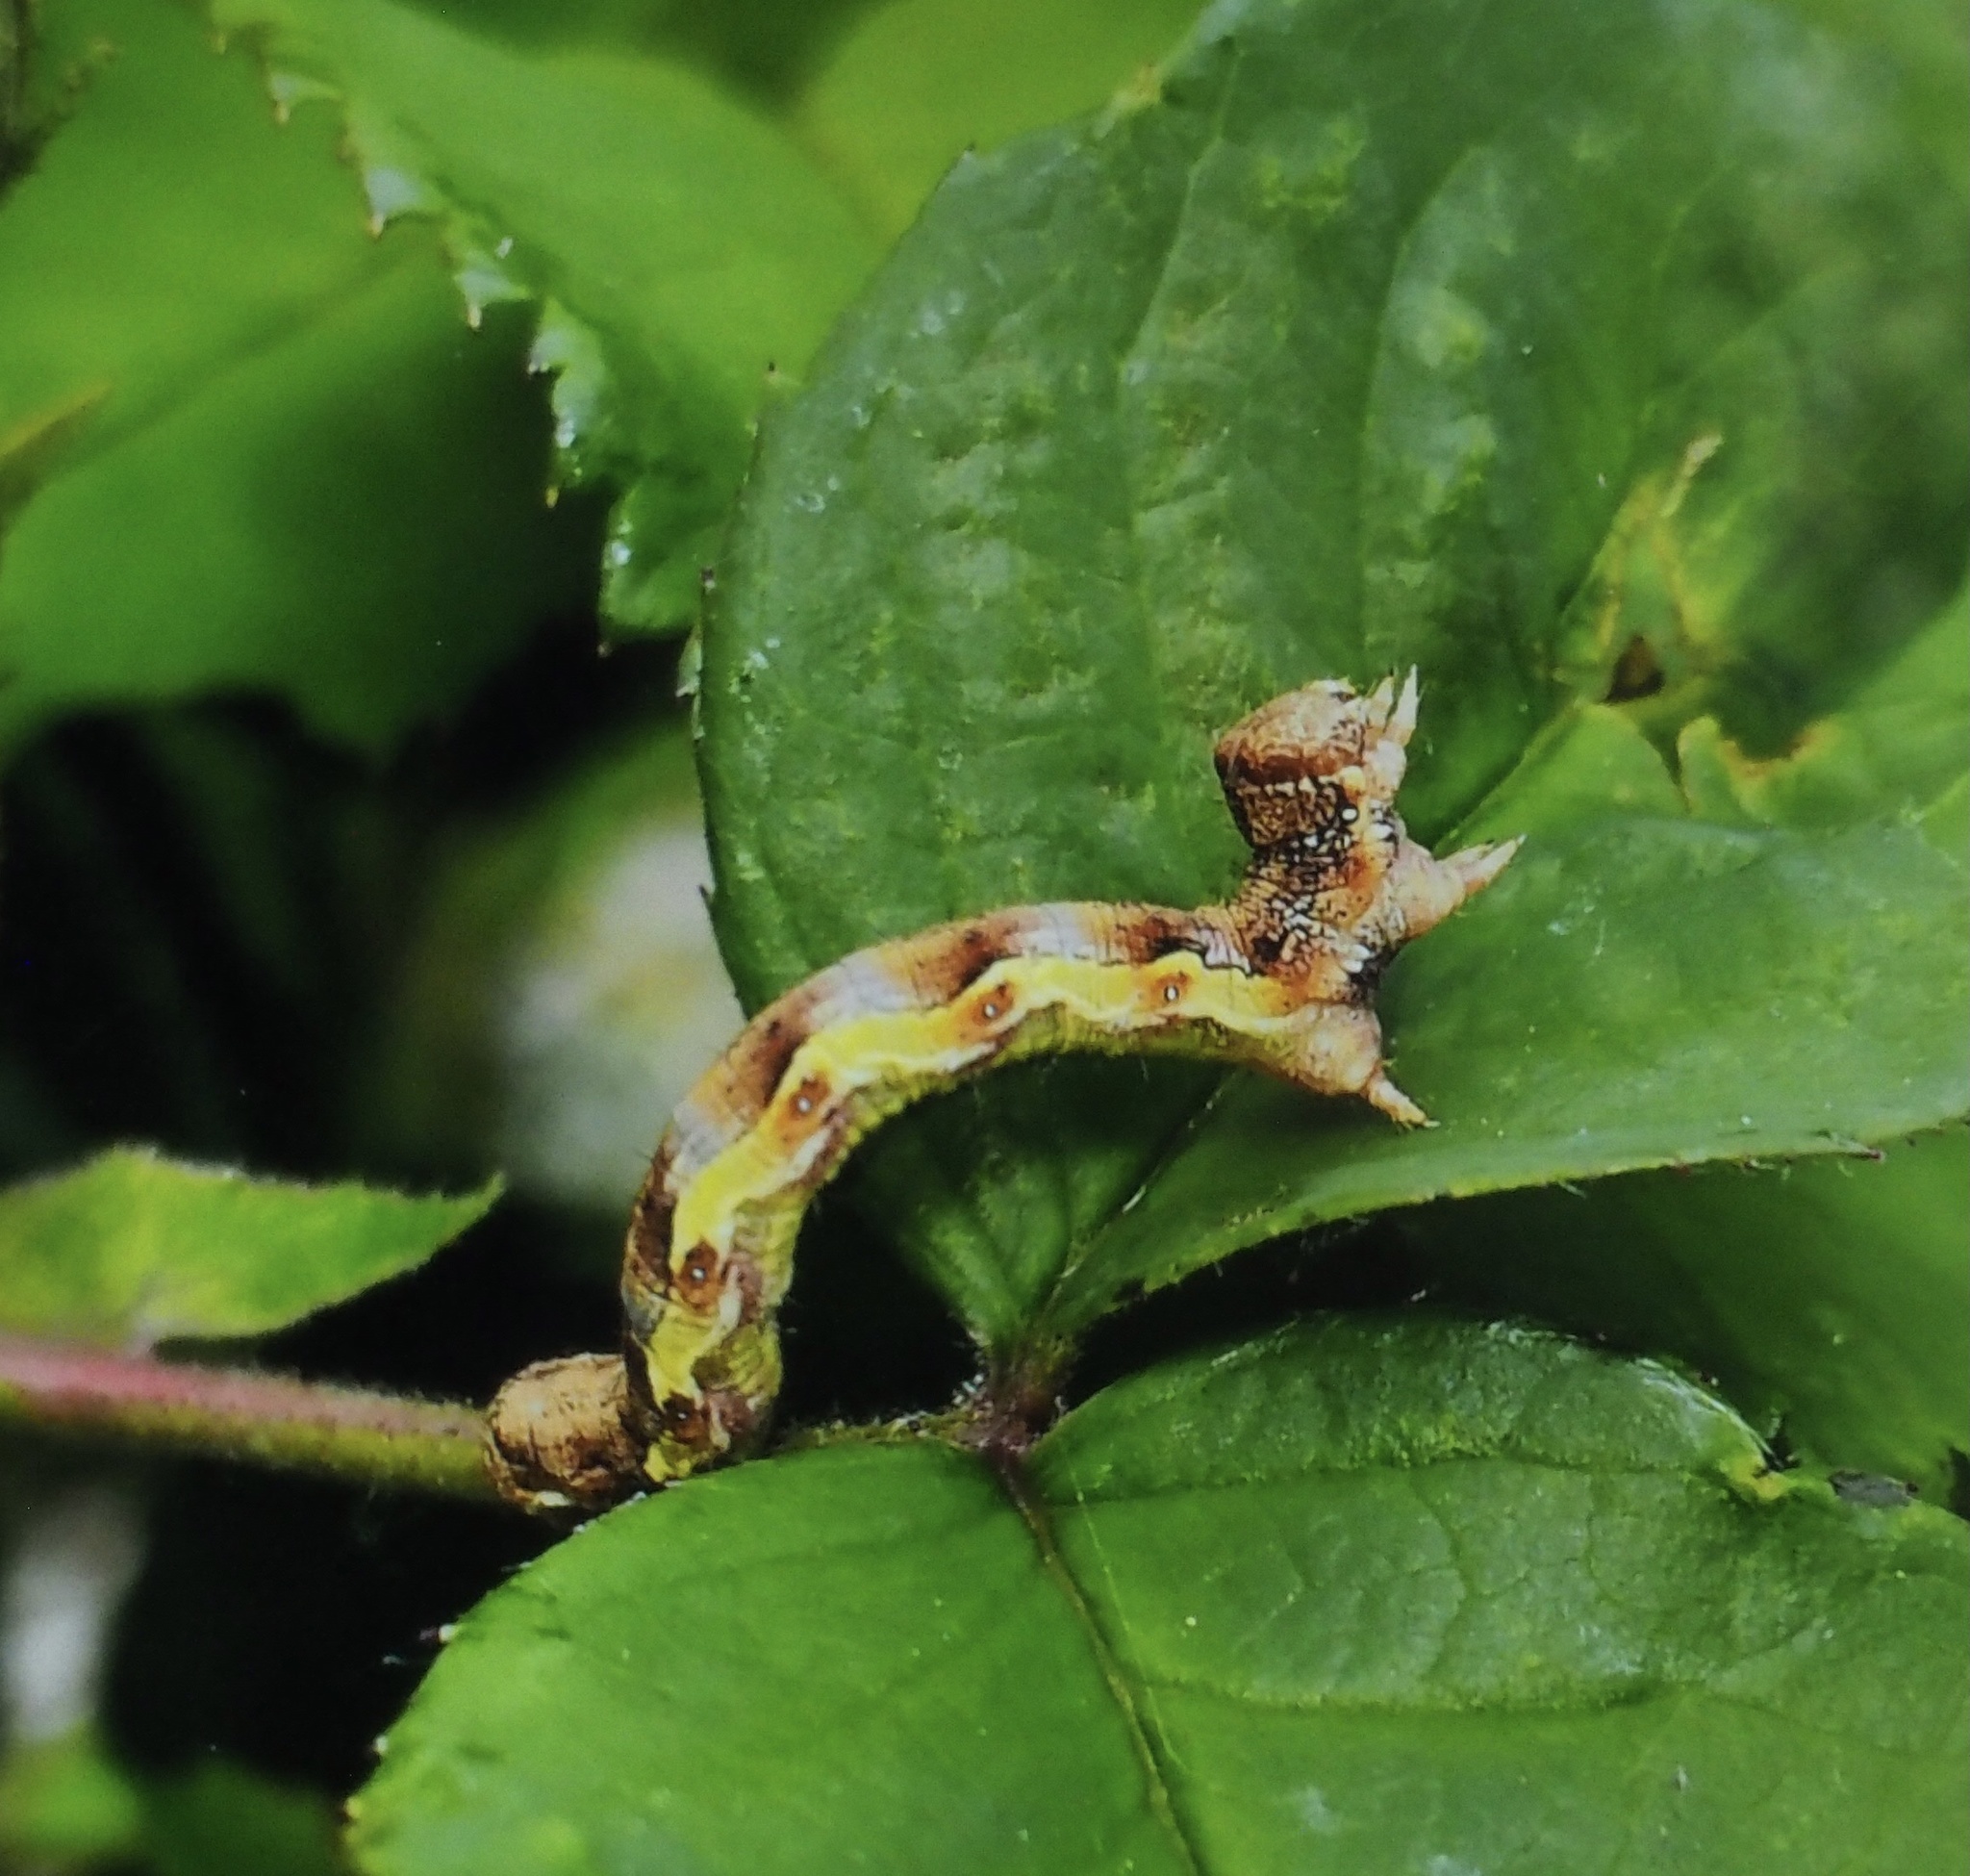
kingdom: Animalia
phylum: Arthropoda
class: Insecta
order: Lepidoptera
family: Geometridae
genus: Erannis
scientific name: Erannis defoliaria
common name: Mottled umber
